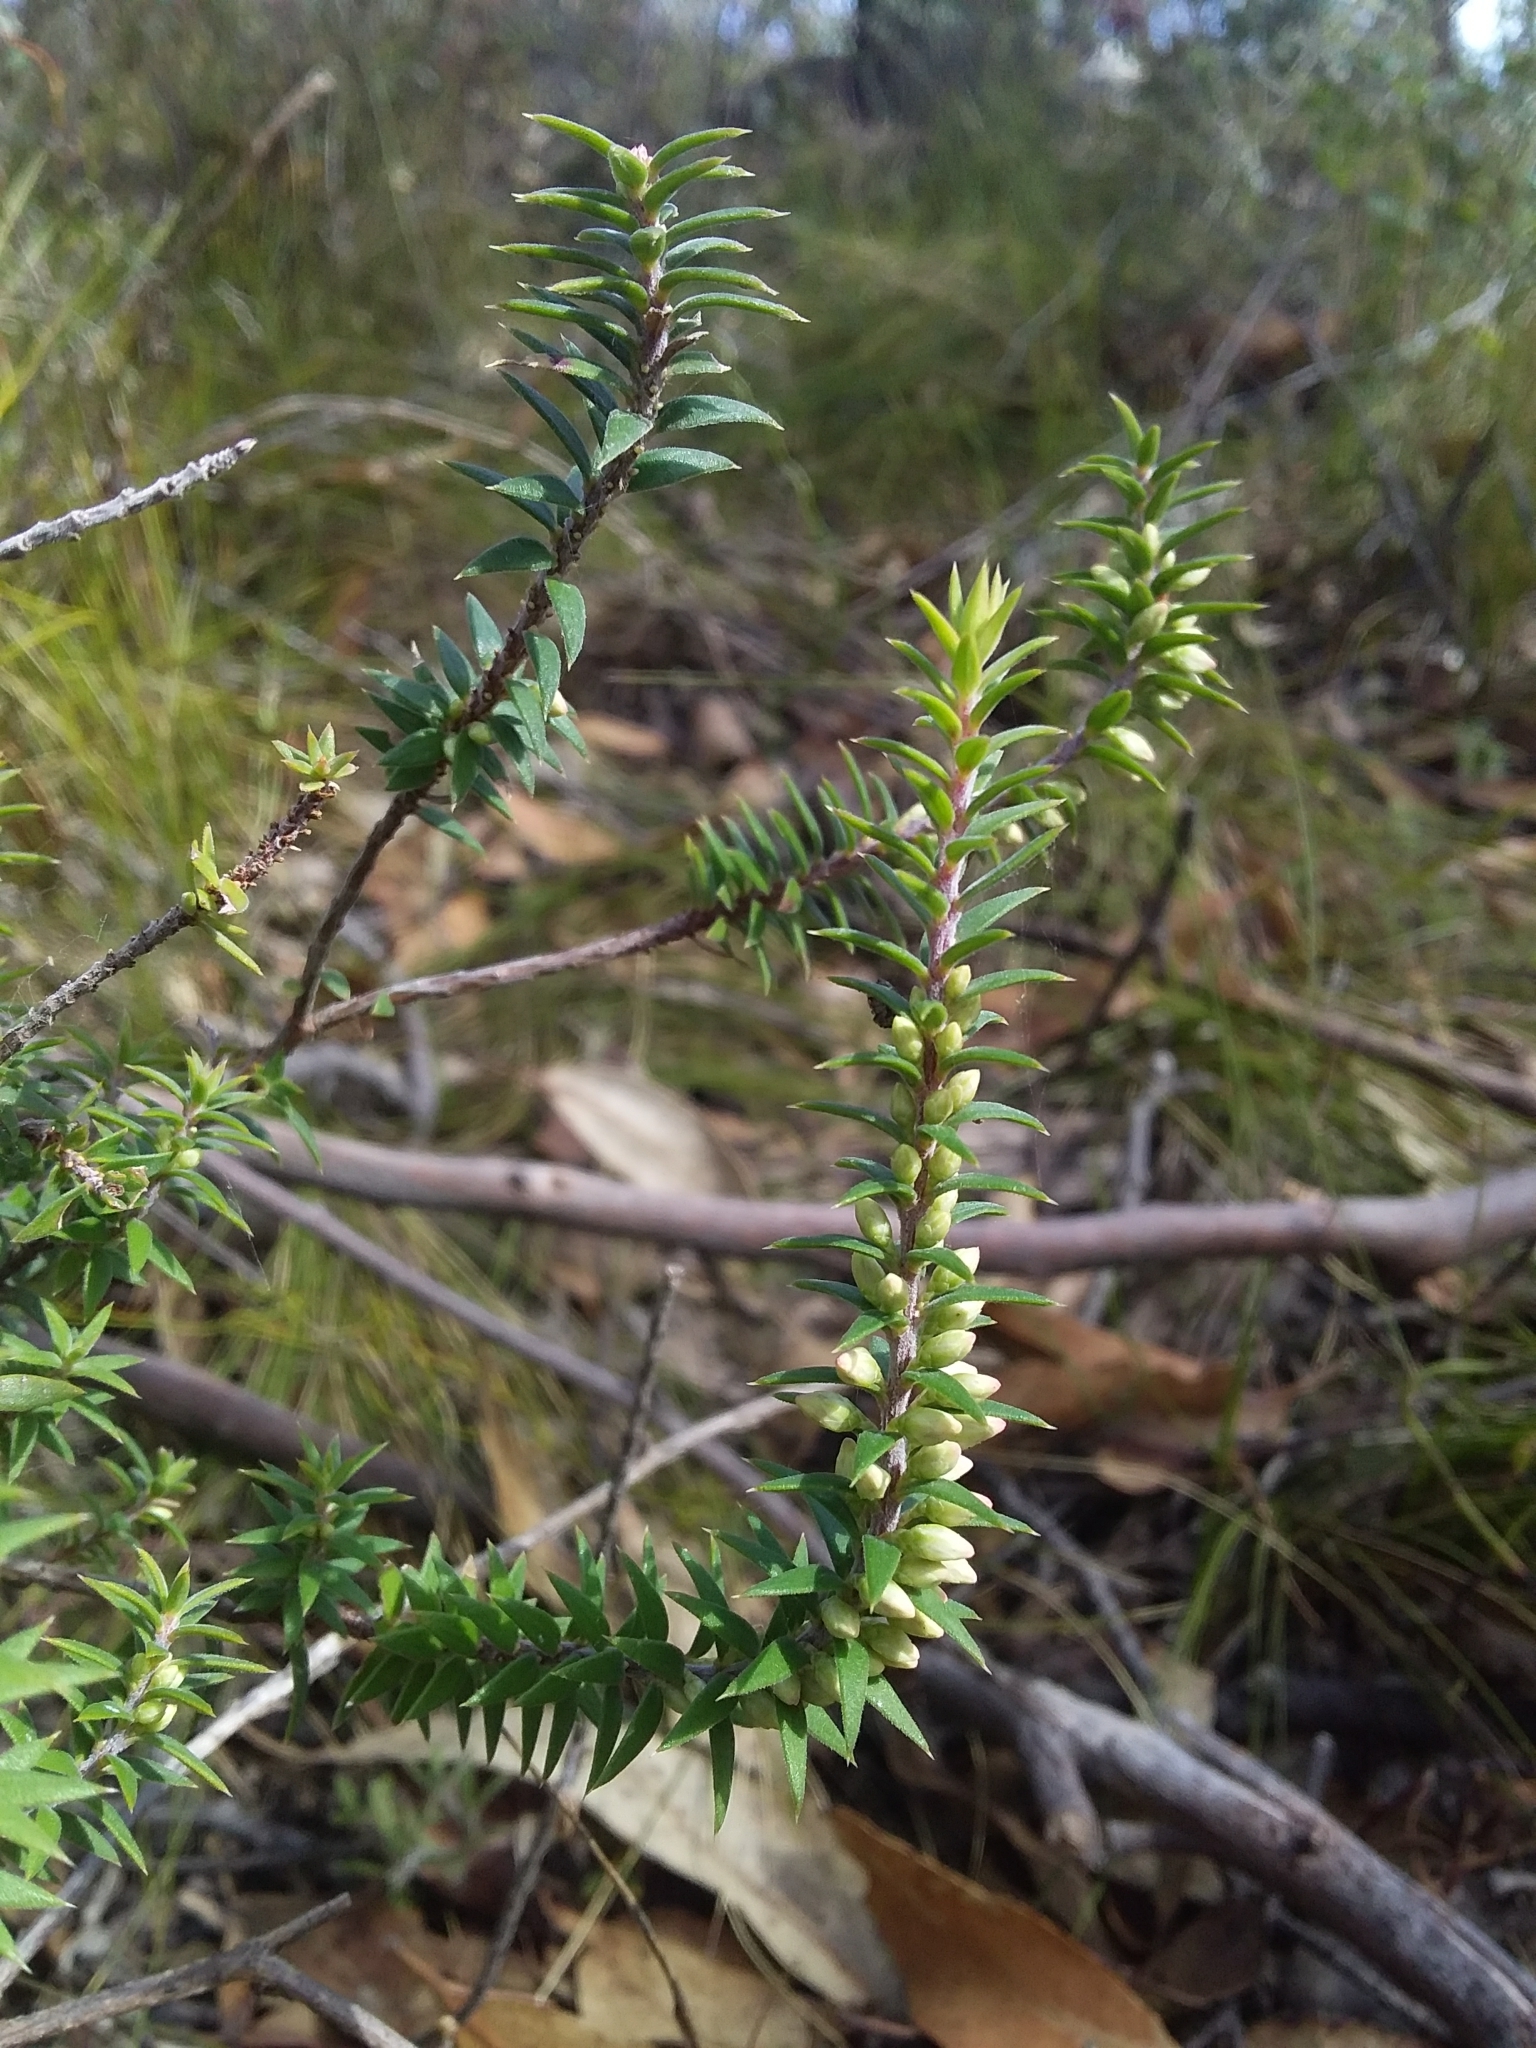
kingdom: Plantae
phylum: Tracheophyta
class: Magnoliopsida
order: Ericales
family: Ericaceae
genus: Epacris
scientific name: Epacris impressa
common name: Common-heath
